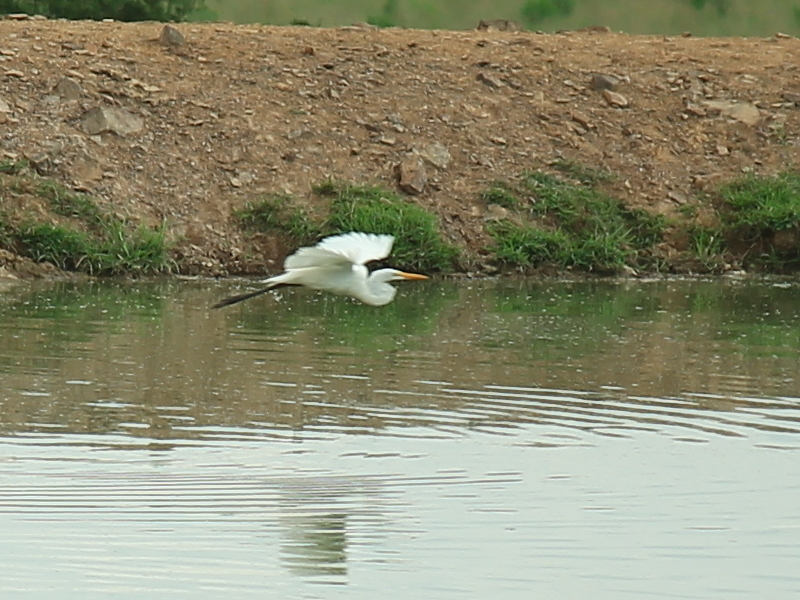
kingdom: Animalia
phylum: Chordata
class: Aves
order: Pelecaniformes
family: Ardeidae
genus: Ardea
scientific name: Ardea alba
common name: Great egret
